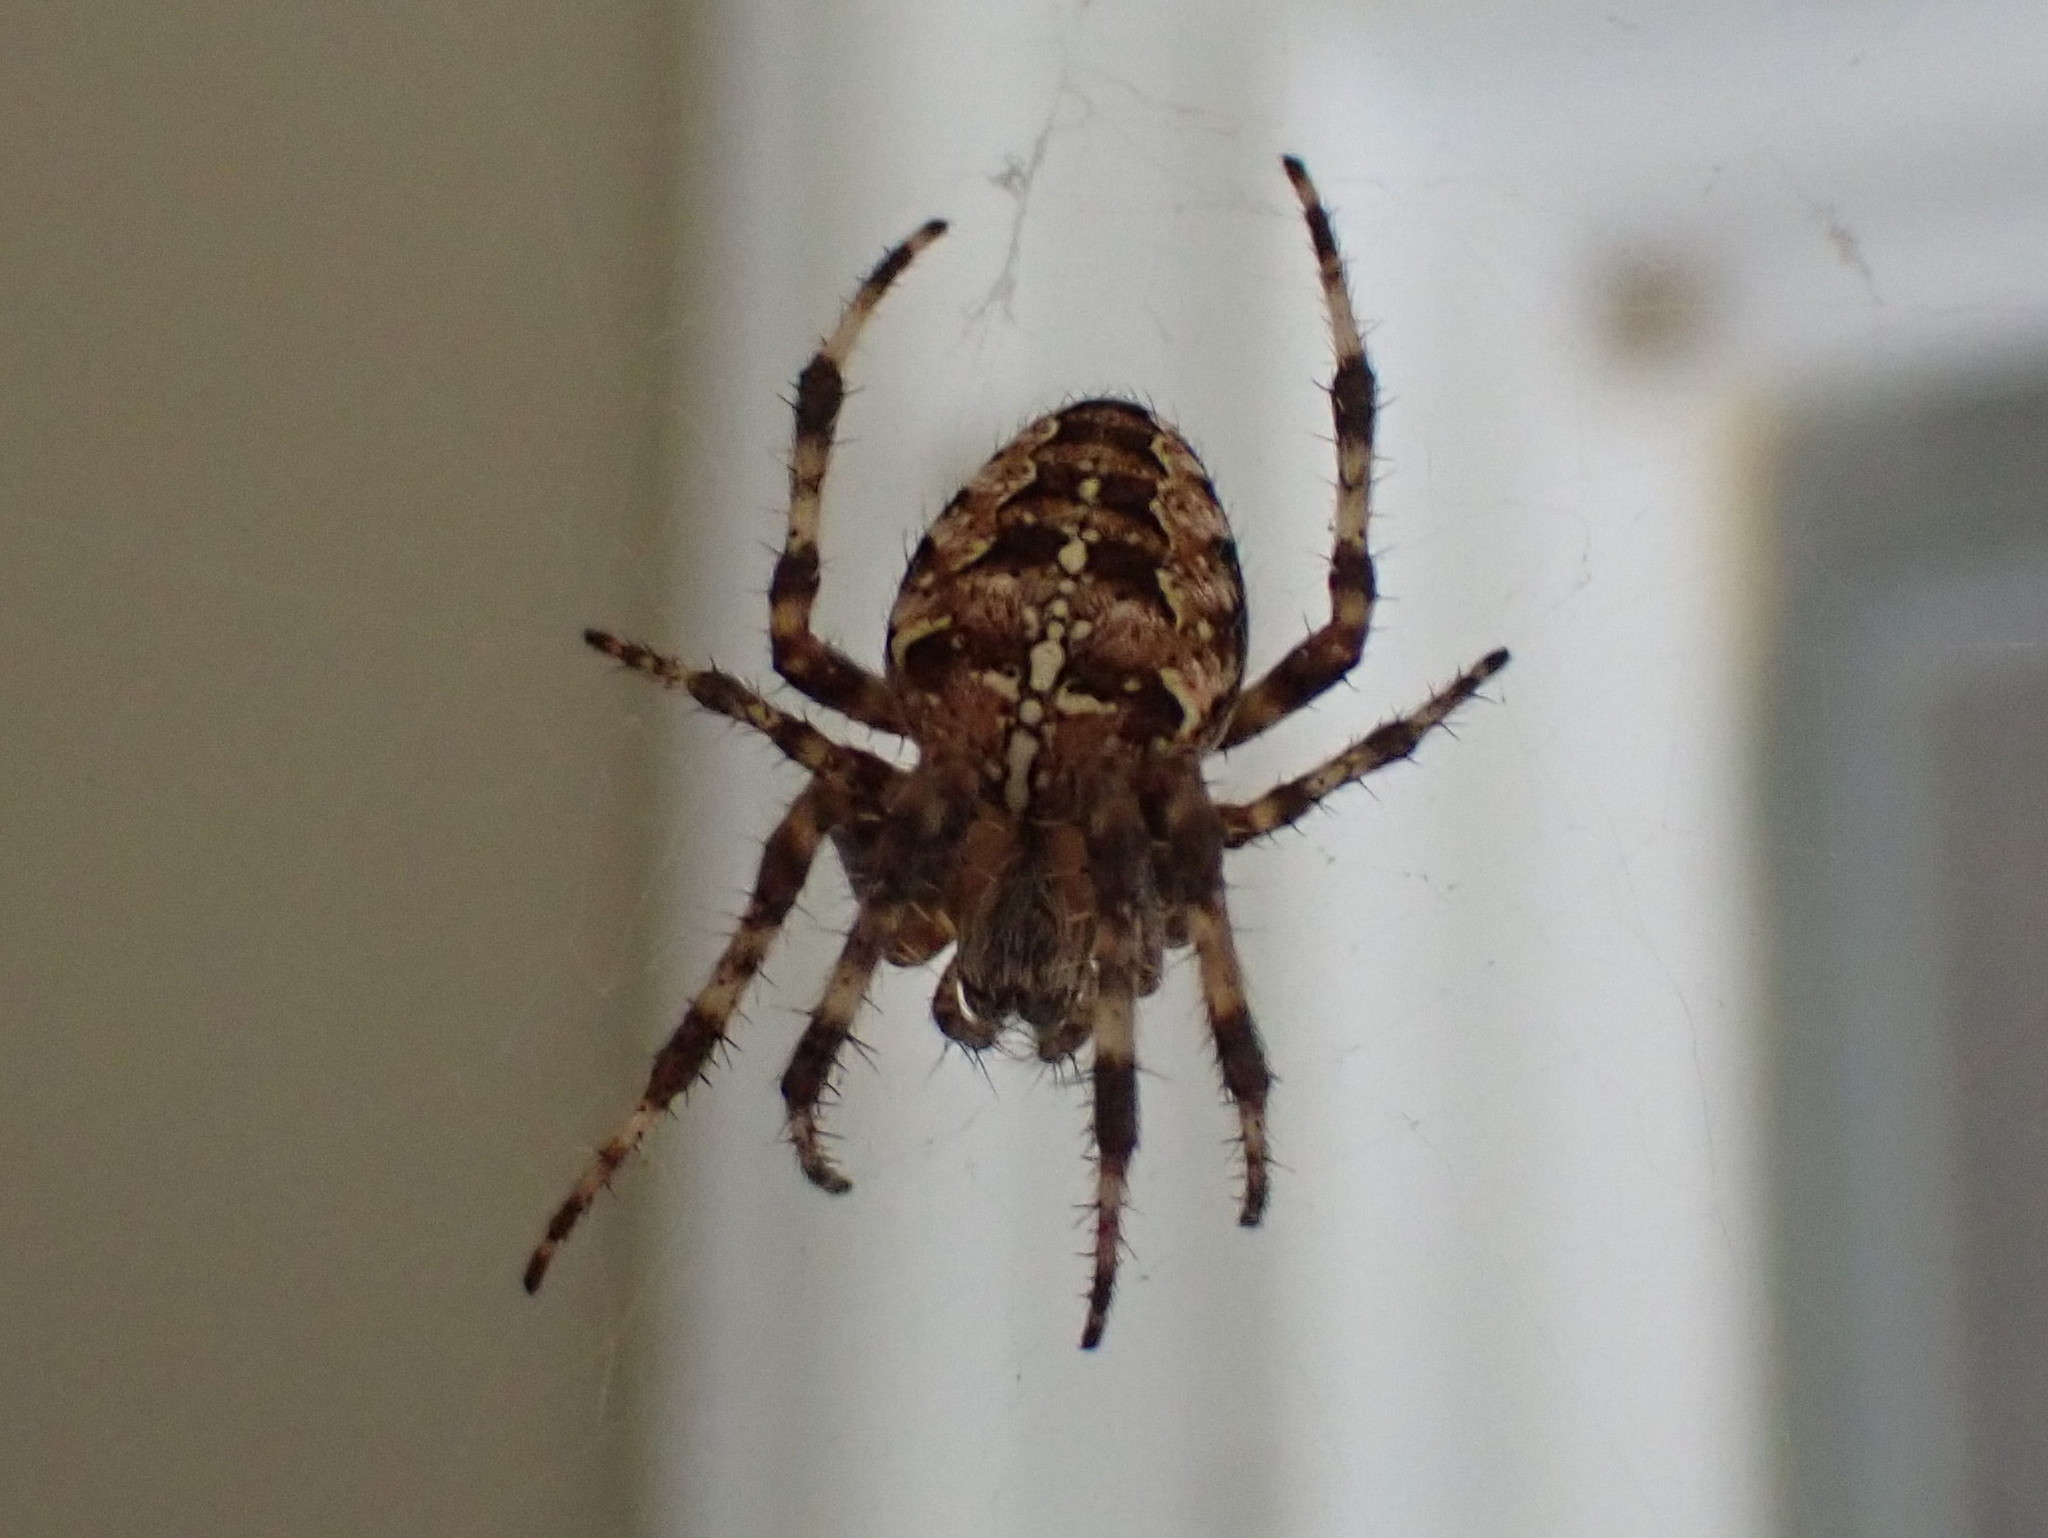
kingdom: Animalia
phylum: Arthropoda
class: Arachnida
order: Araneae
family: Araneidae
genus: Araneus
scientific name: Araneus diadematus
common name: Cross orbweaver
